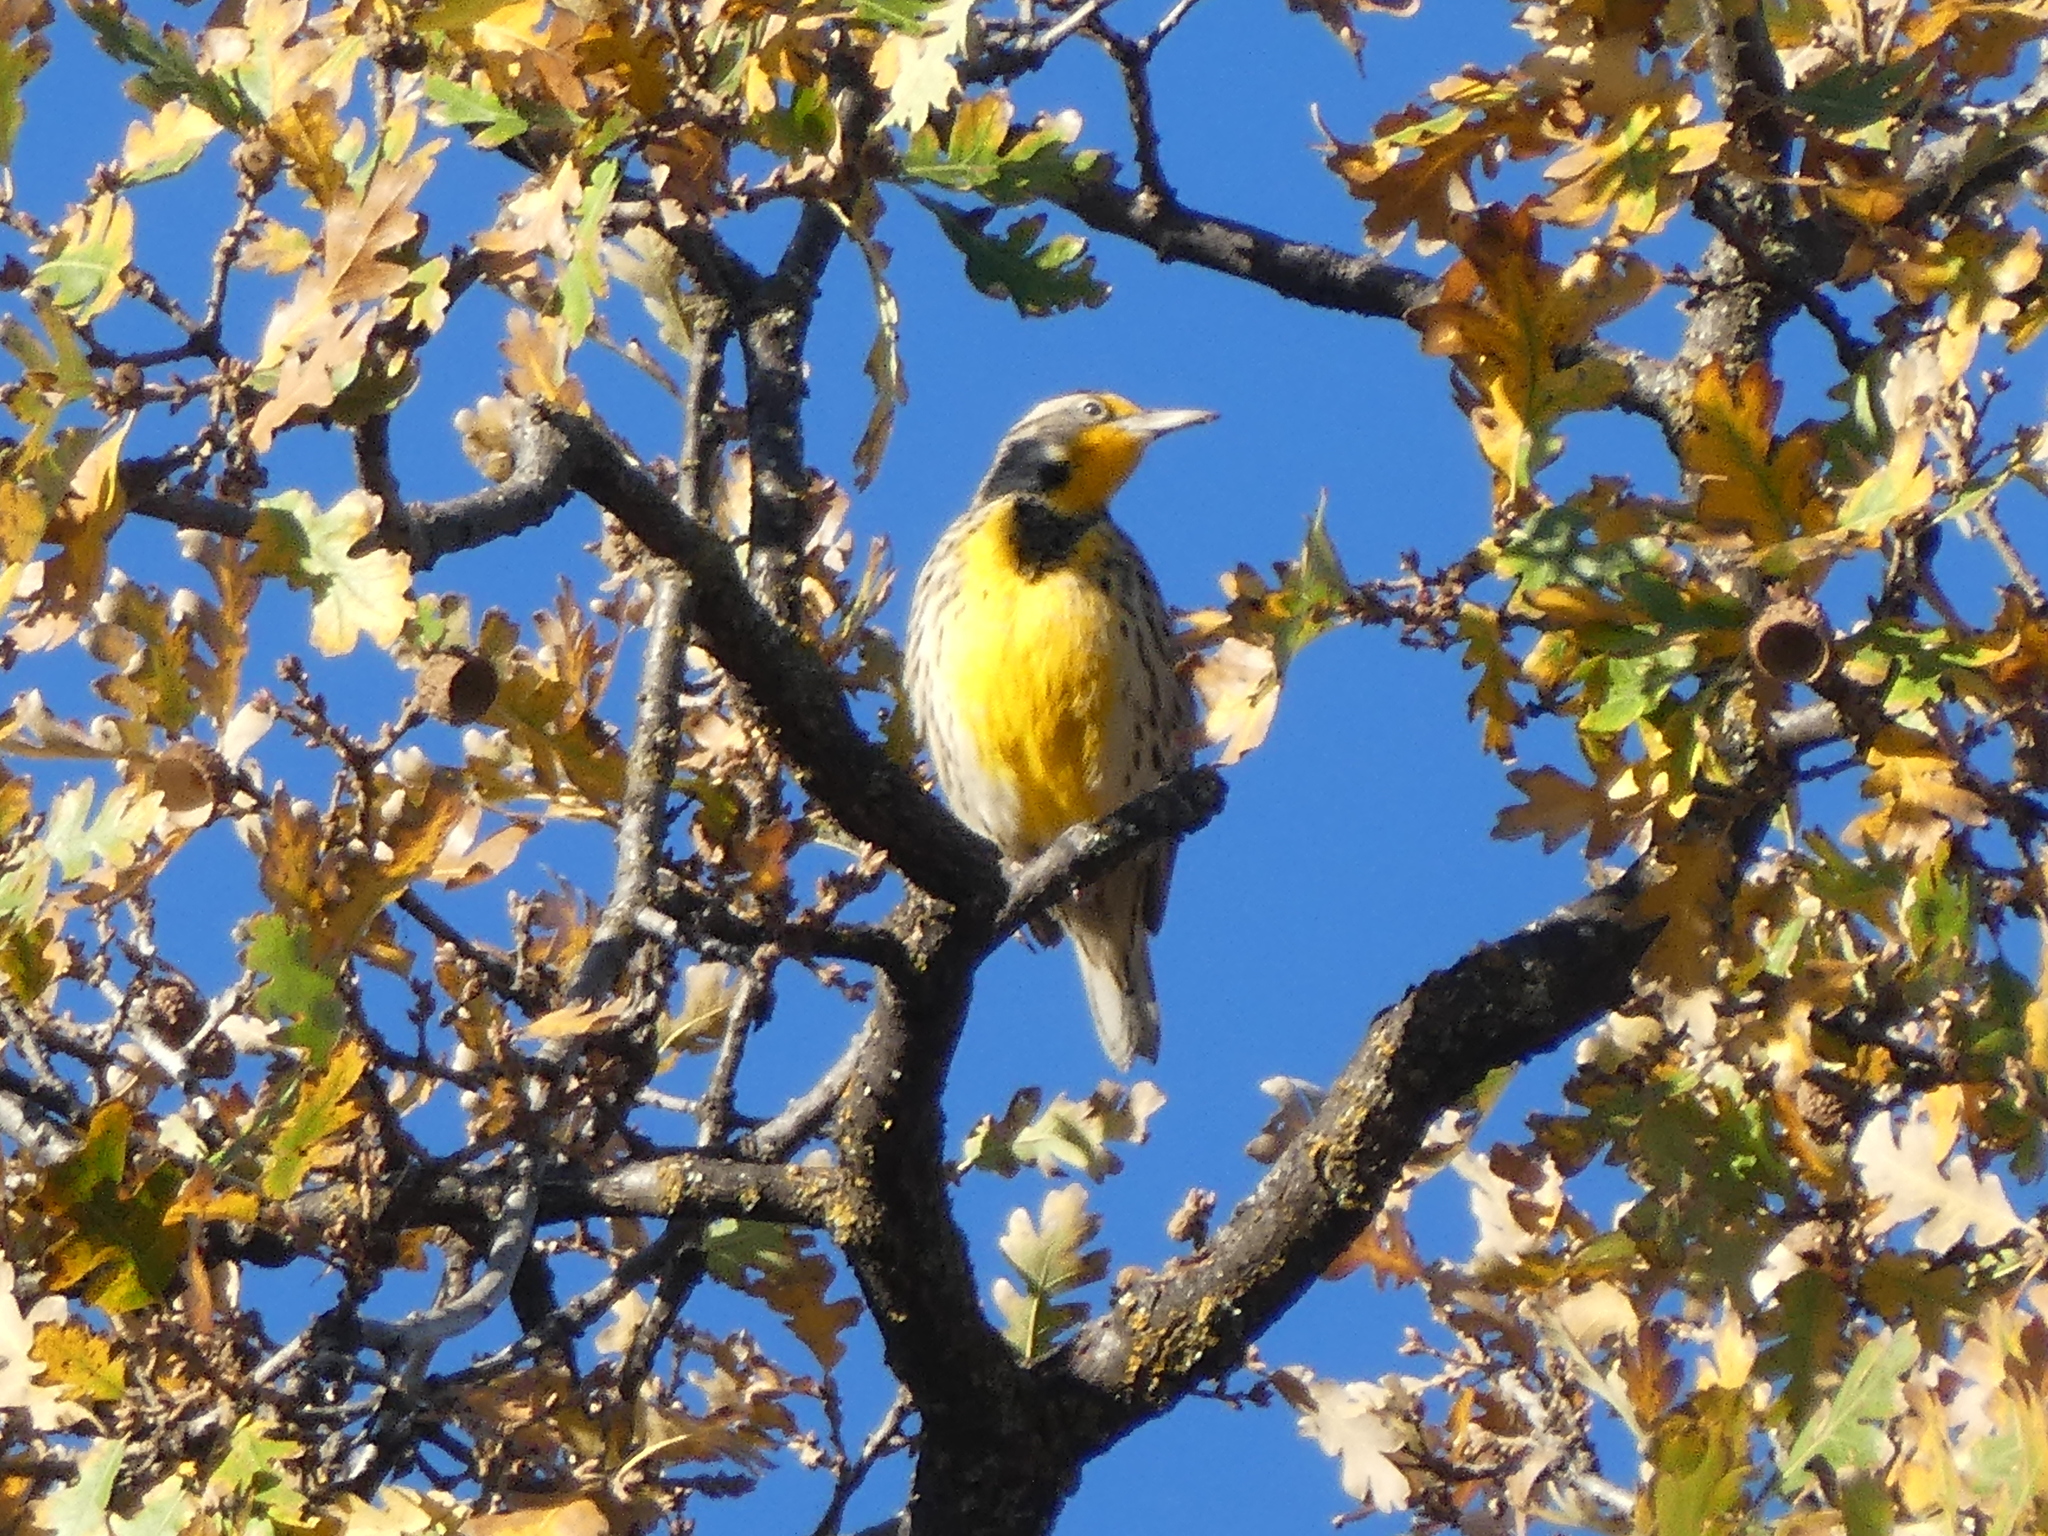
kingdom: Animalia
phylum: Chordata
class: Aves
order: Passeriformes
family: Icteridae
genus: Sturnella
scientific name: Sturnella neglecta
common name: Western meadowlark
